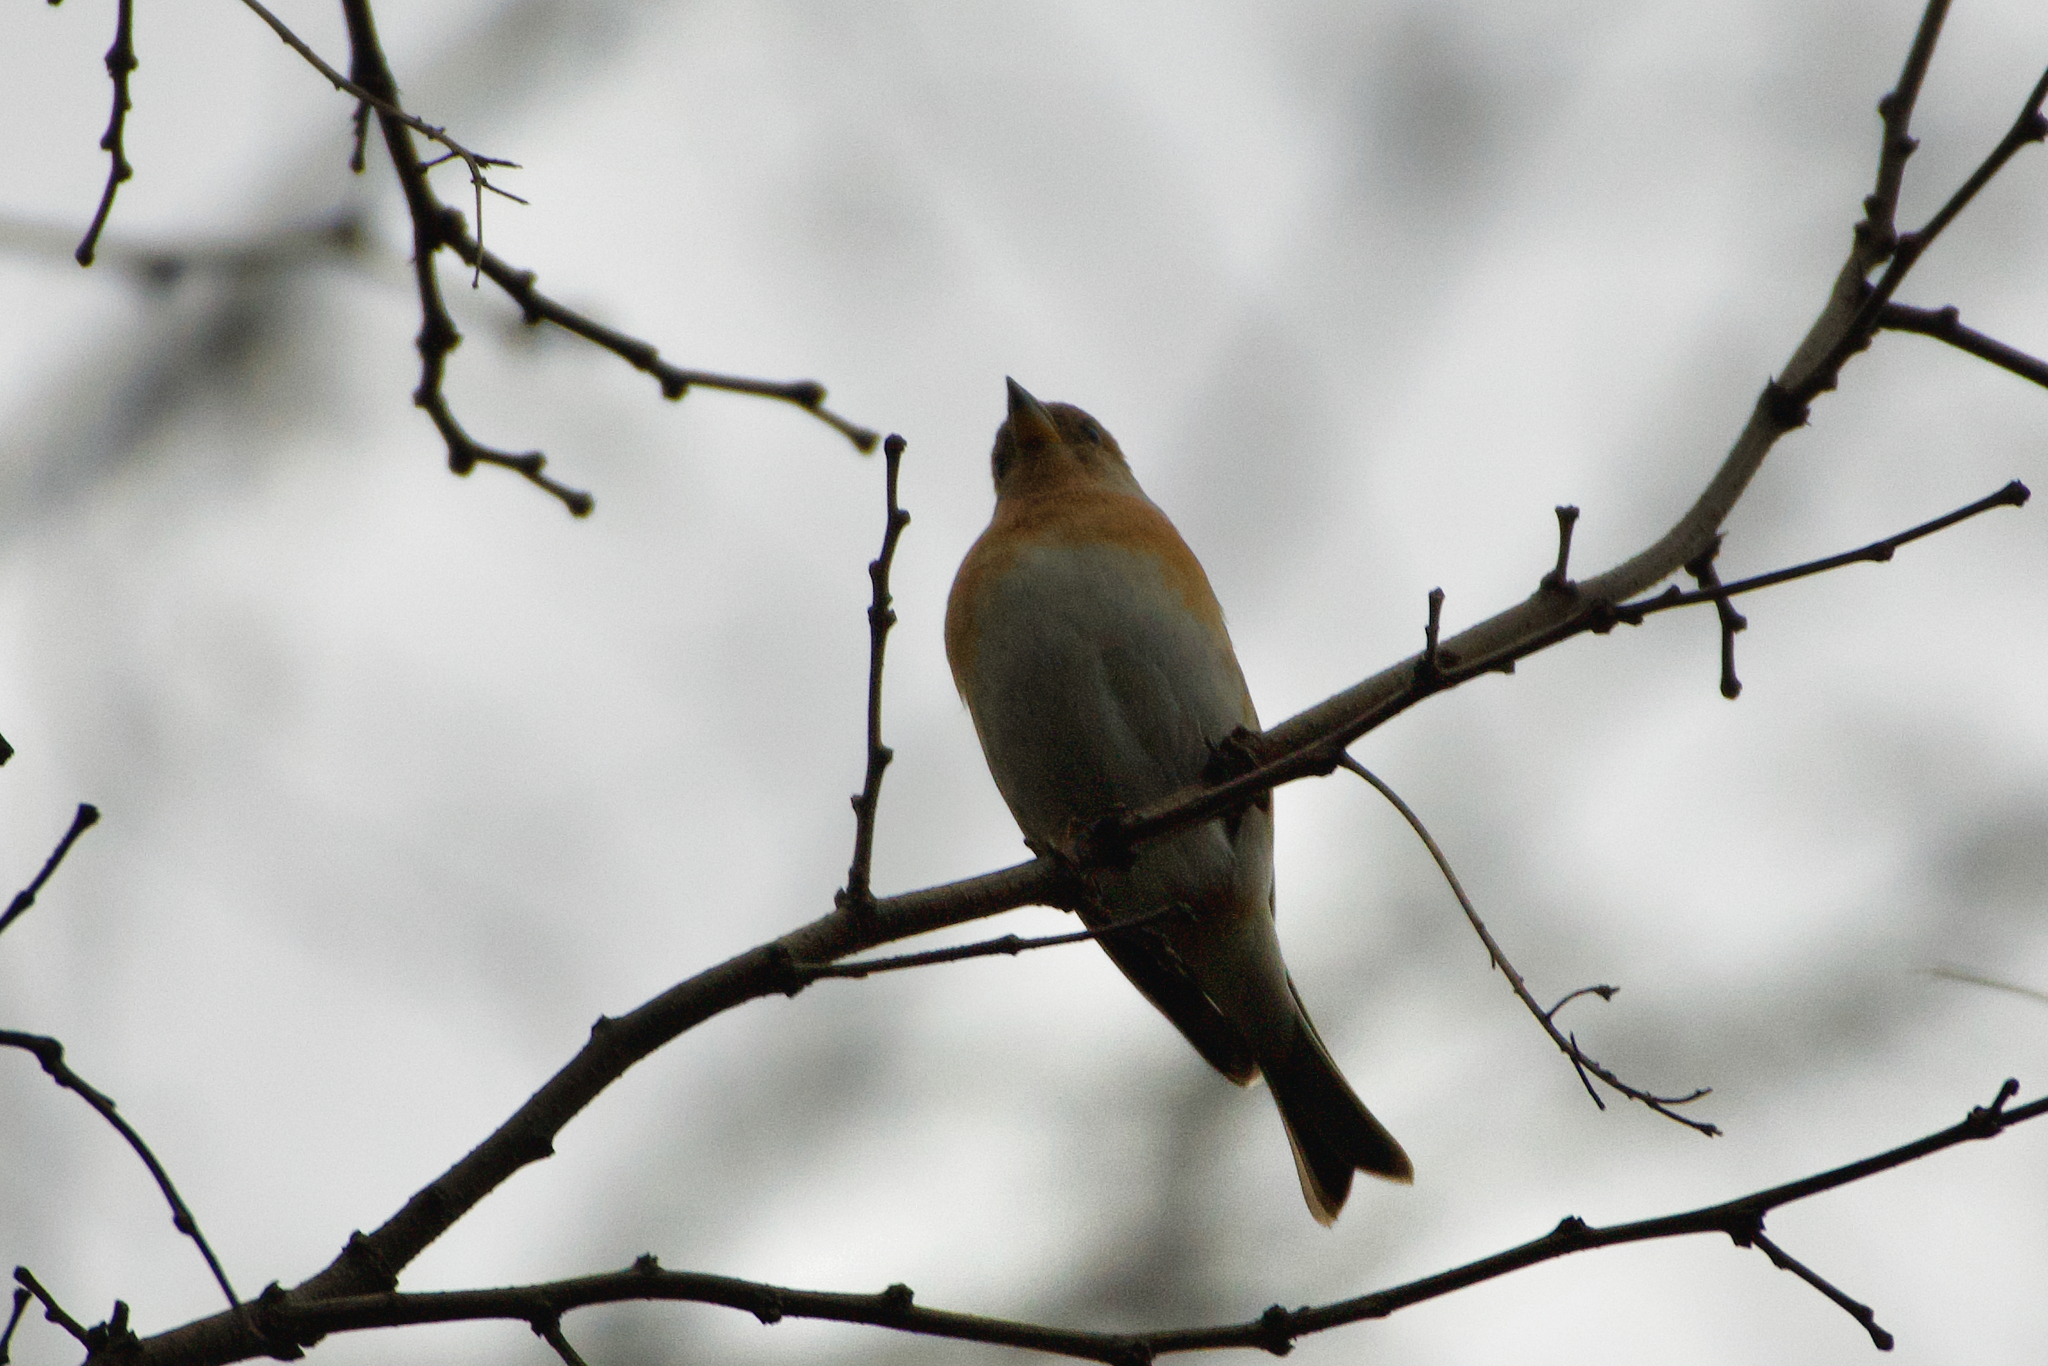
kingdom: Animalia
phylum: Chordata
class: Aves
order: Passeriformes
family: Fringillidae
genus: Fringilla
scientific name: Fringilla montifringilla
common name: Brambling
